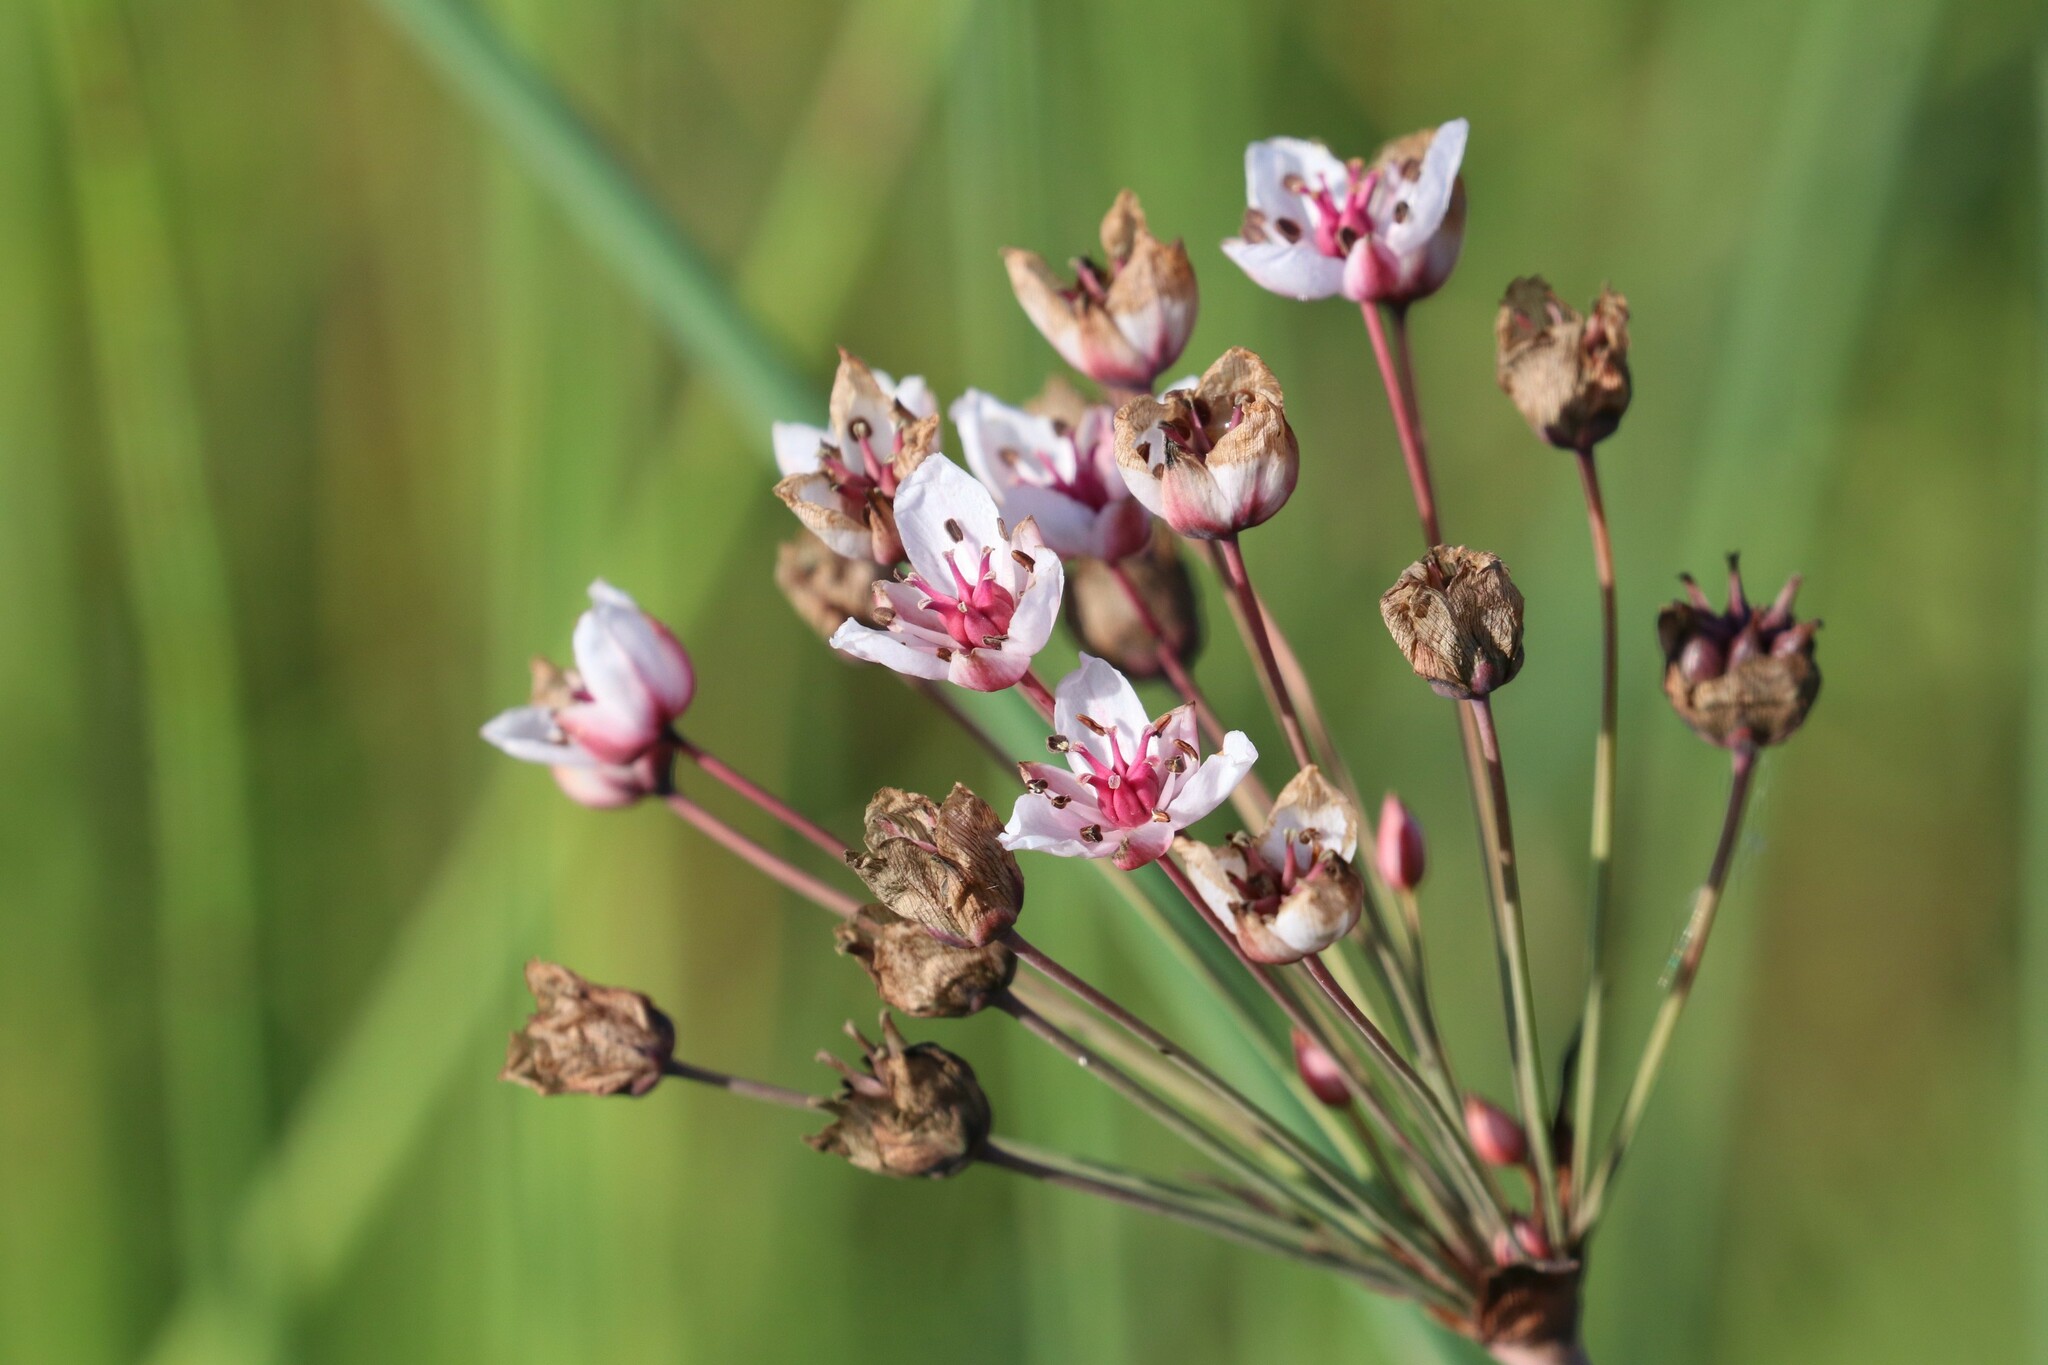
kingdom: Plantae
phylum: Tracheophyta
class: Liliopsida
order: Alismatales
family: Butomaceae
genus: Butomus
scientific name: Butomus umbellatus
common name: Flowering-rush
